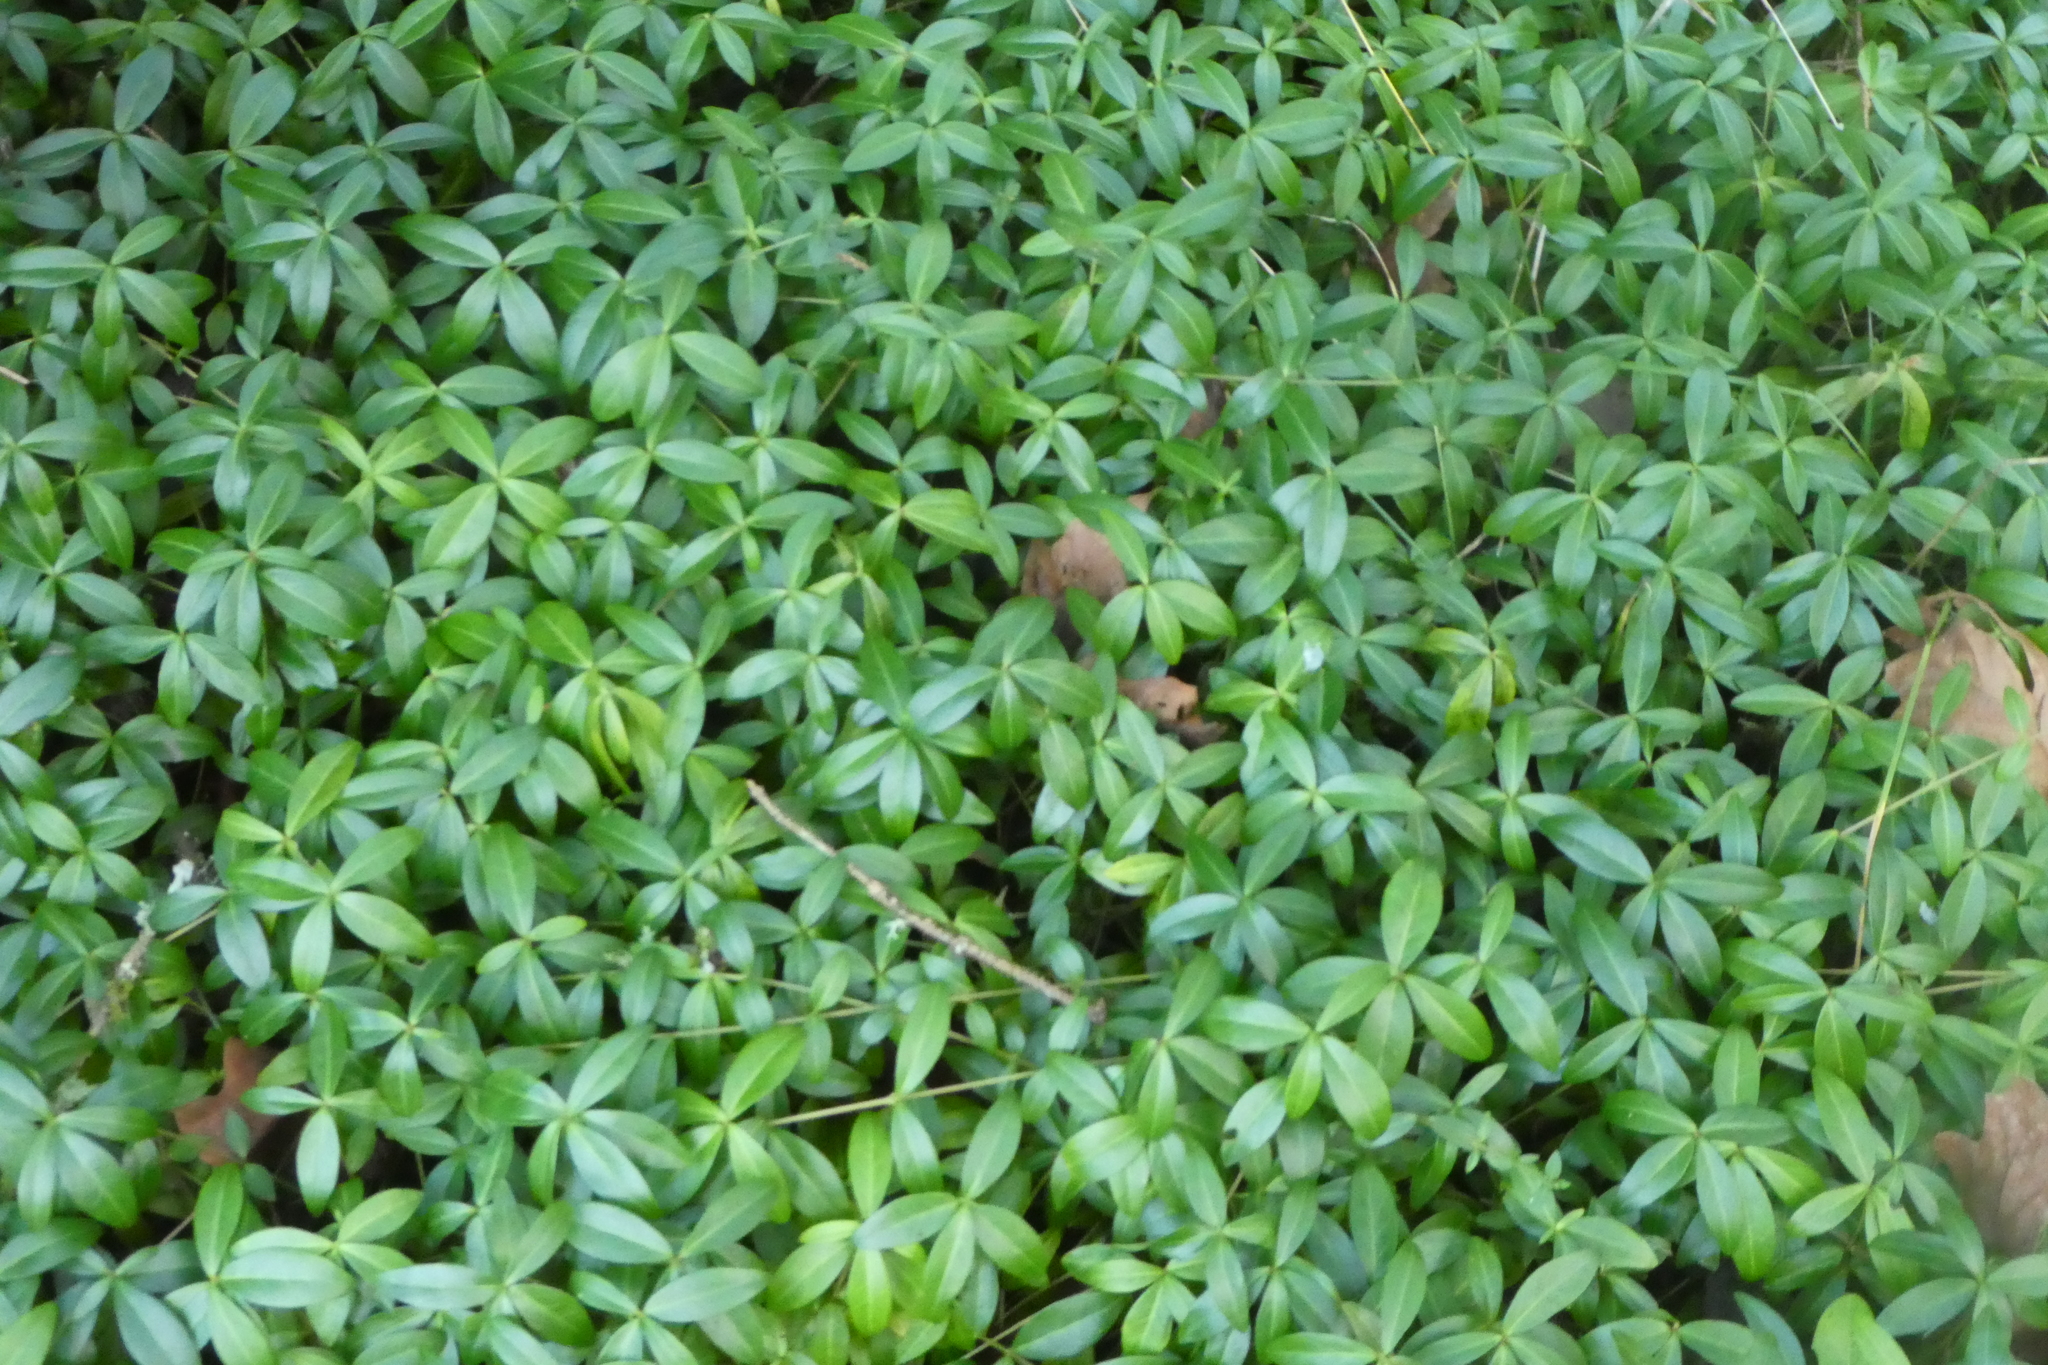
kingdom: Plantae
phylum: Tracheophyta
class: Magnoliopsida
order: Gentianales
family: Apocynaceae
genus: Vinca
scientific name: Vinca minor
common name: Lesser periwinkle
